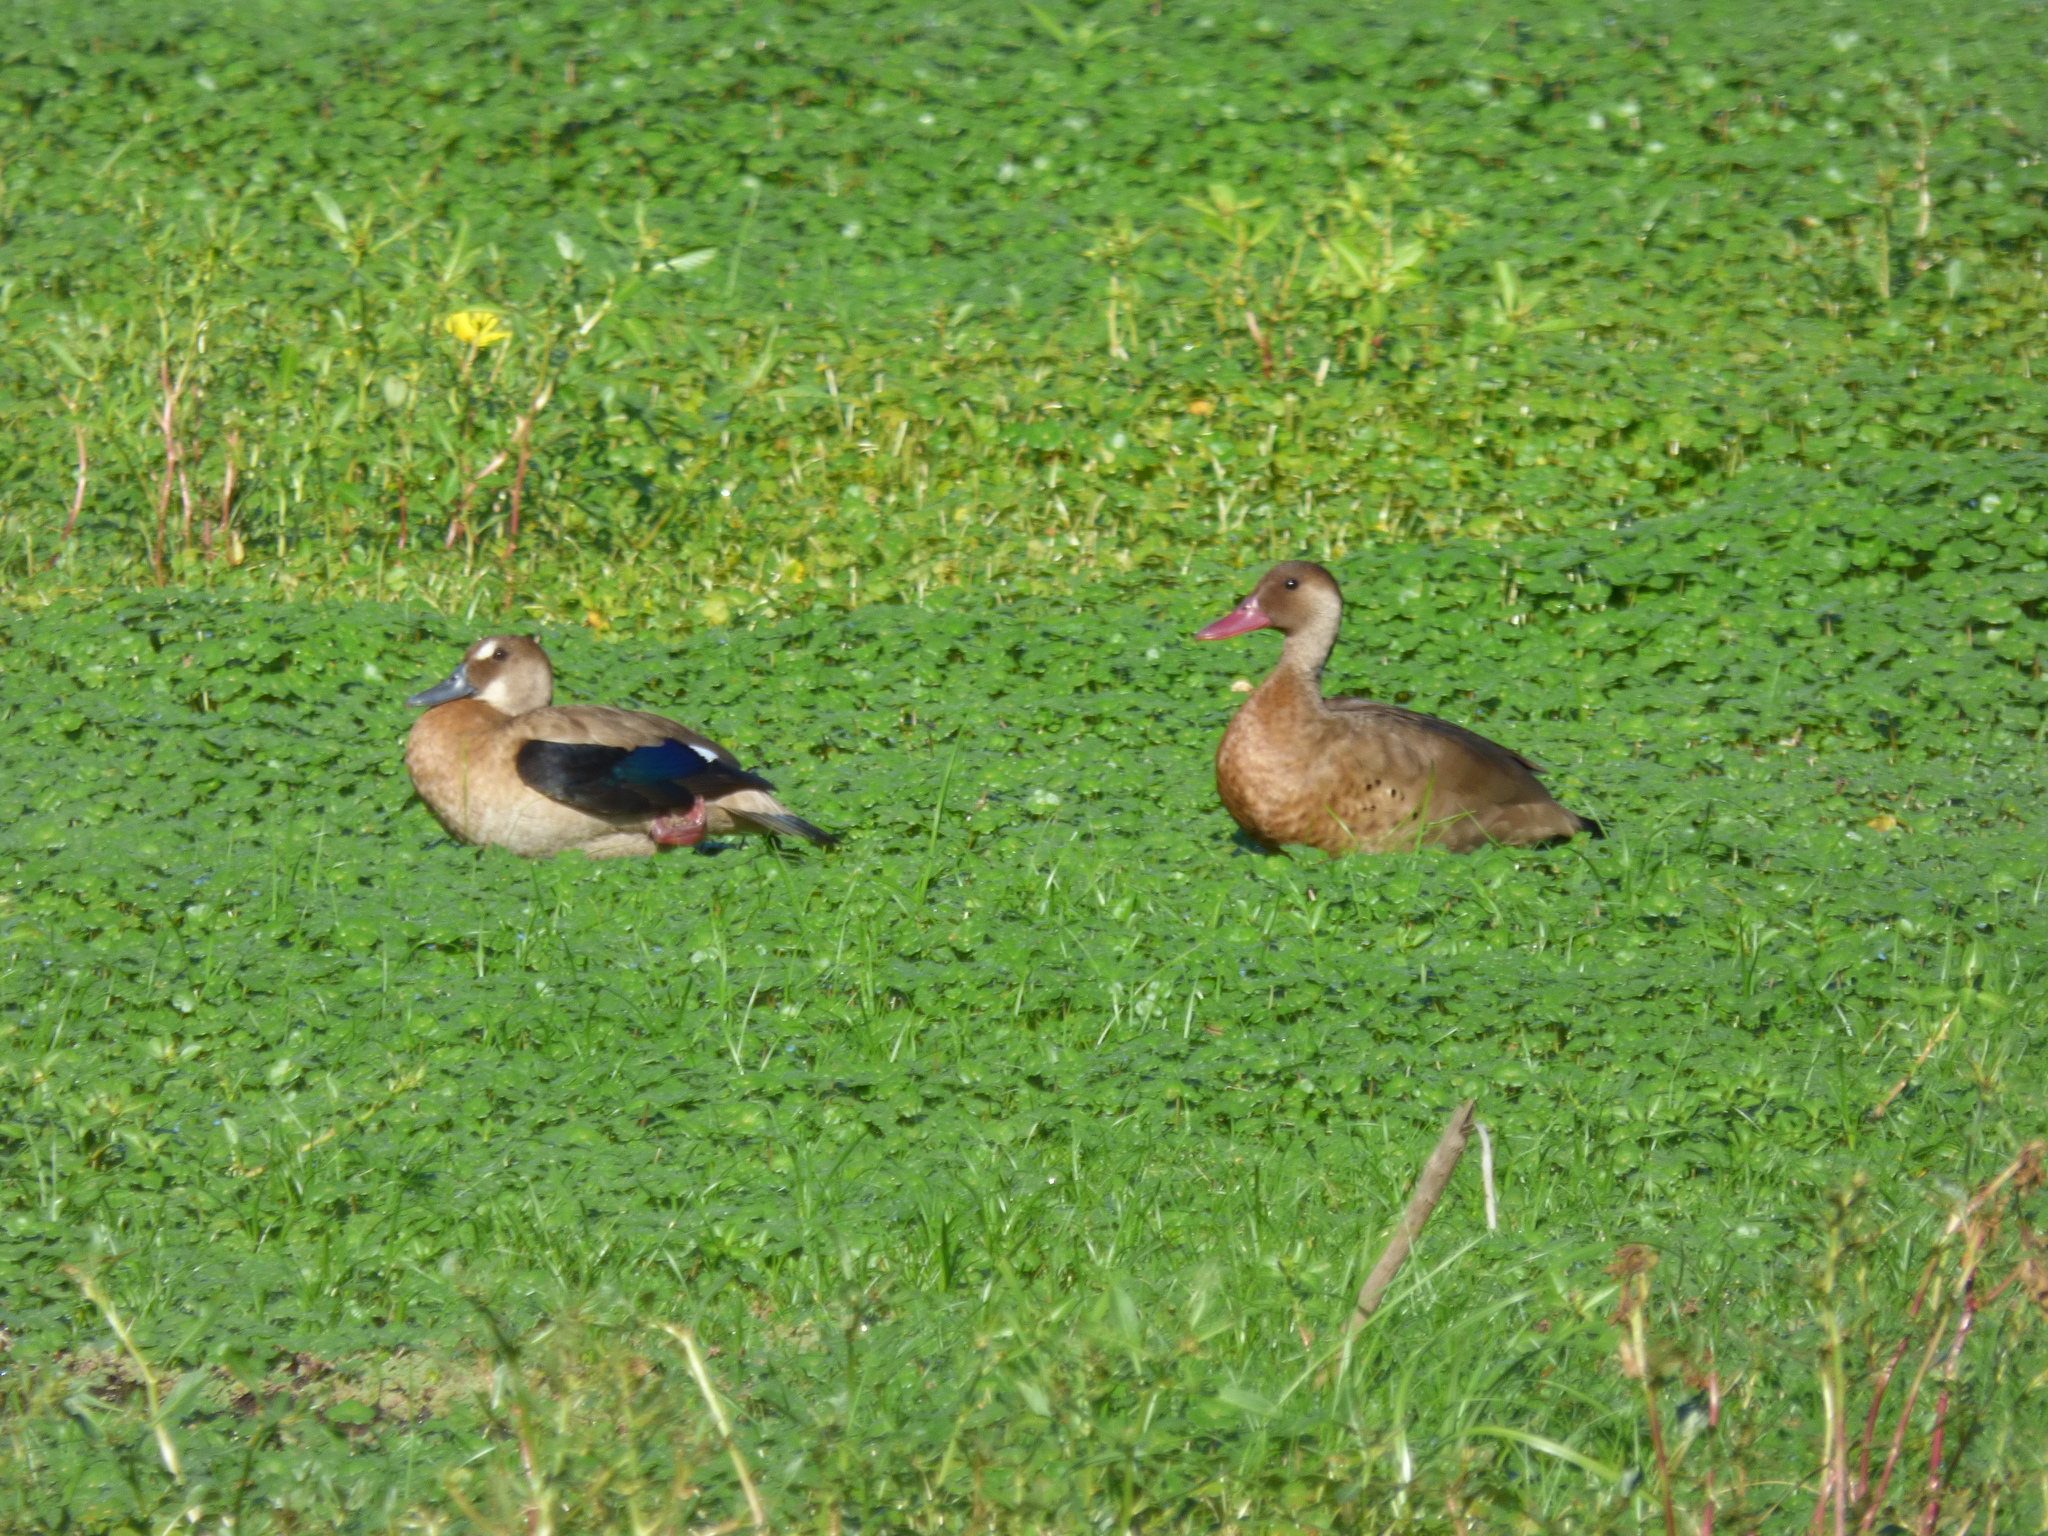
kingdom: Animalia
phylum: Chordata
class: Aves
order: Anseriformes
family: Anatidae
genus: Amazonetta
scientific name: Amazonetta brasiliensis
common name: Brazilian teal
